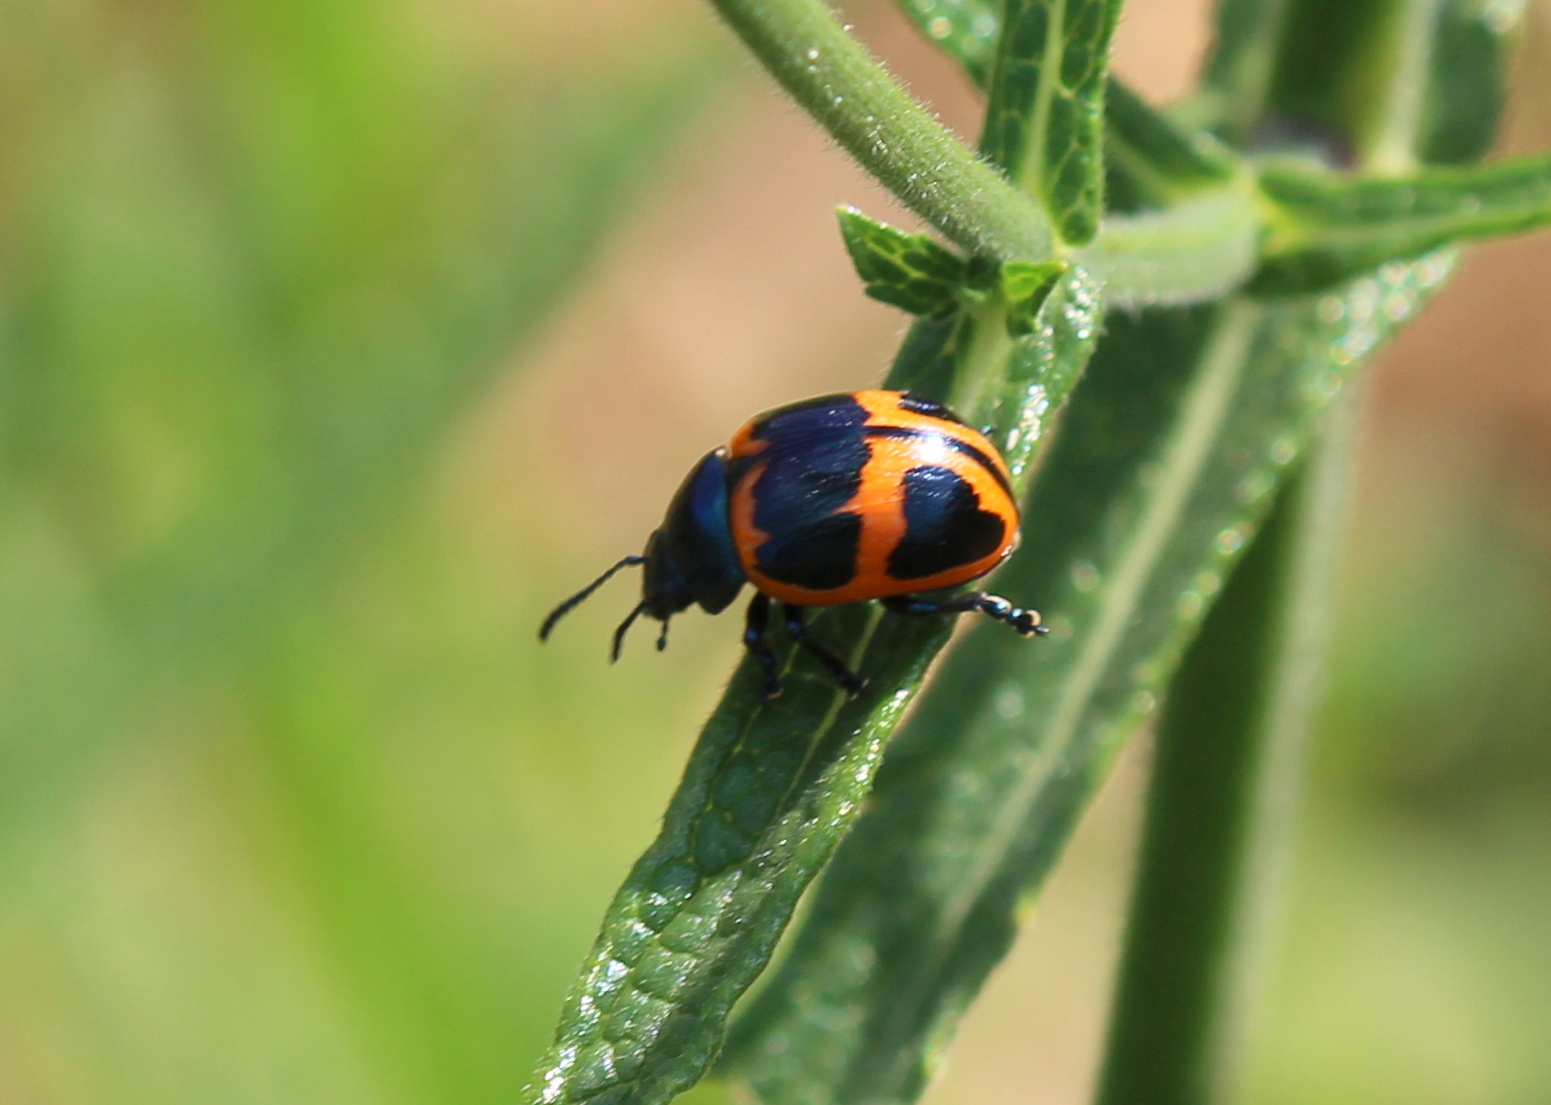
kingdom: Animalia
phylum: Arthropoda
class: Insecta
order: Coleoptera
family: Chrysomelidae
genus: Labidomera
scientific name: Labidomera clivicollis
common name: Swamp milkweed leaf beetle
